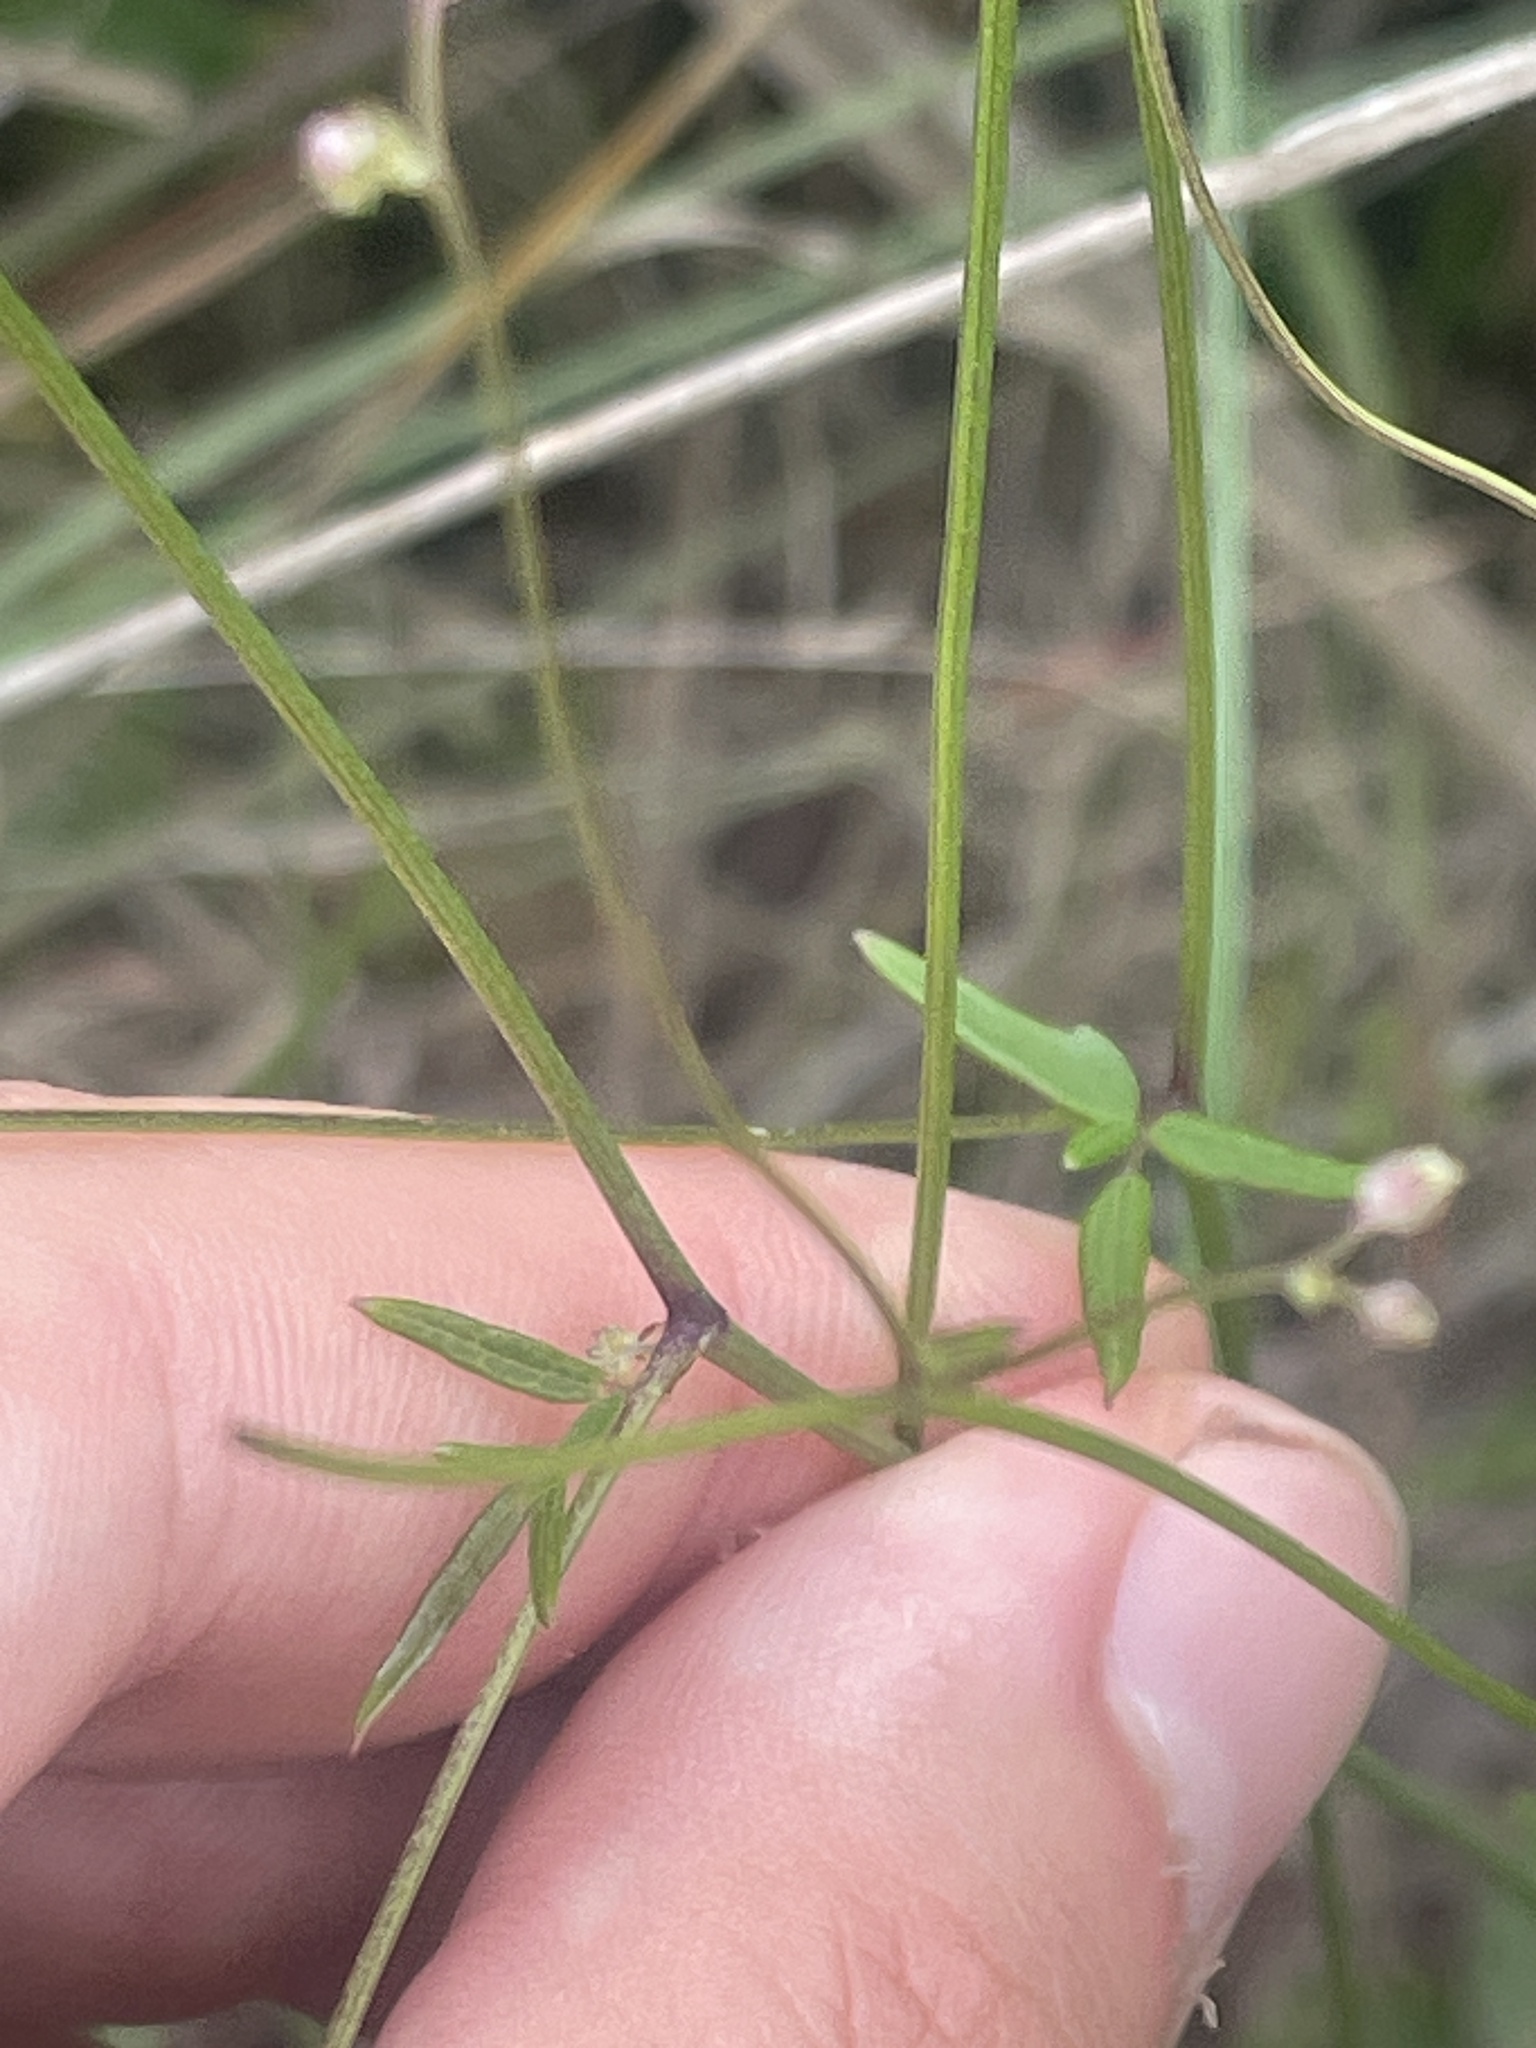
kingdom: Plantae
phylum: Tracheophyta
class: Magnoliopsida
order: Ranunculales
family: Ranunculaceae
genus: Thalictrum
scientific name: Thalictrum cooleyi
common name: Cooley's meadow-rue
